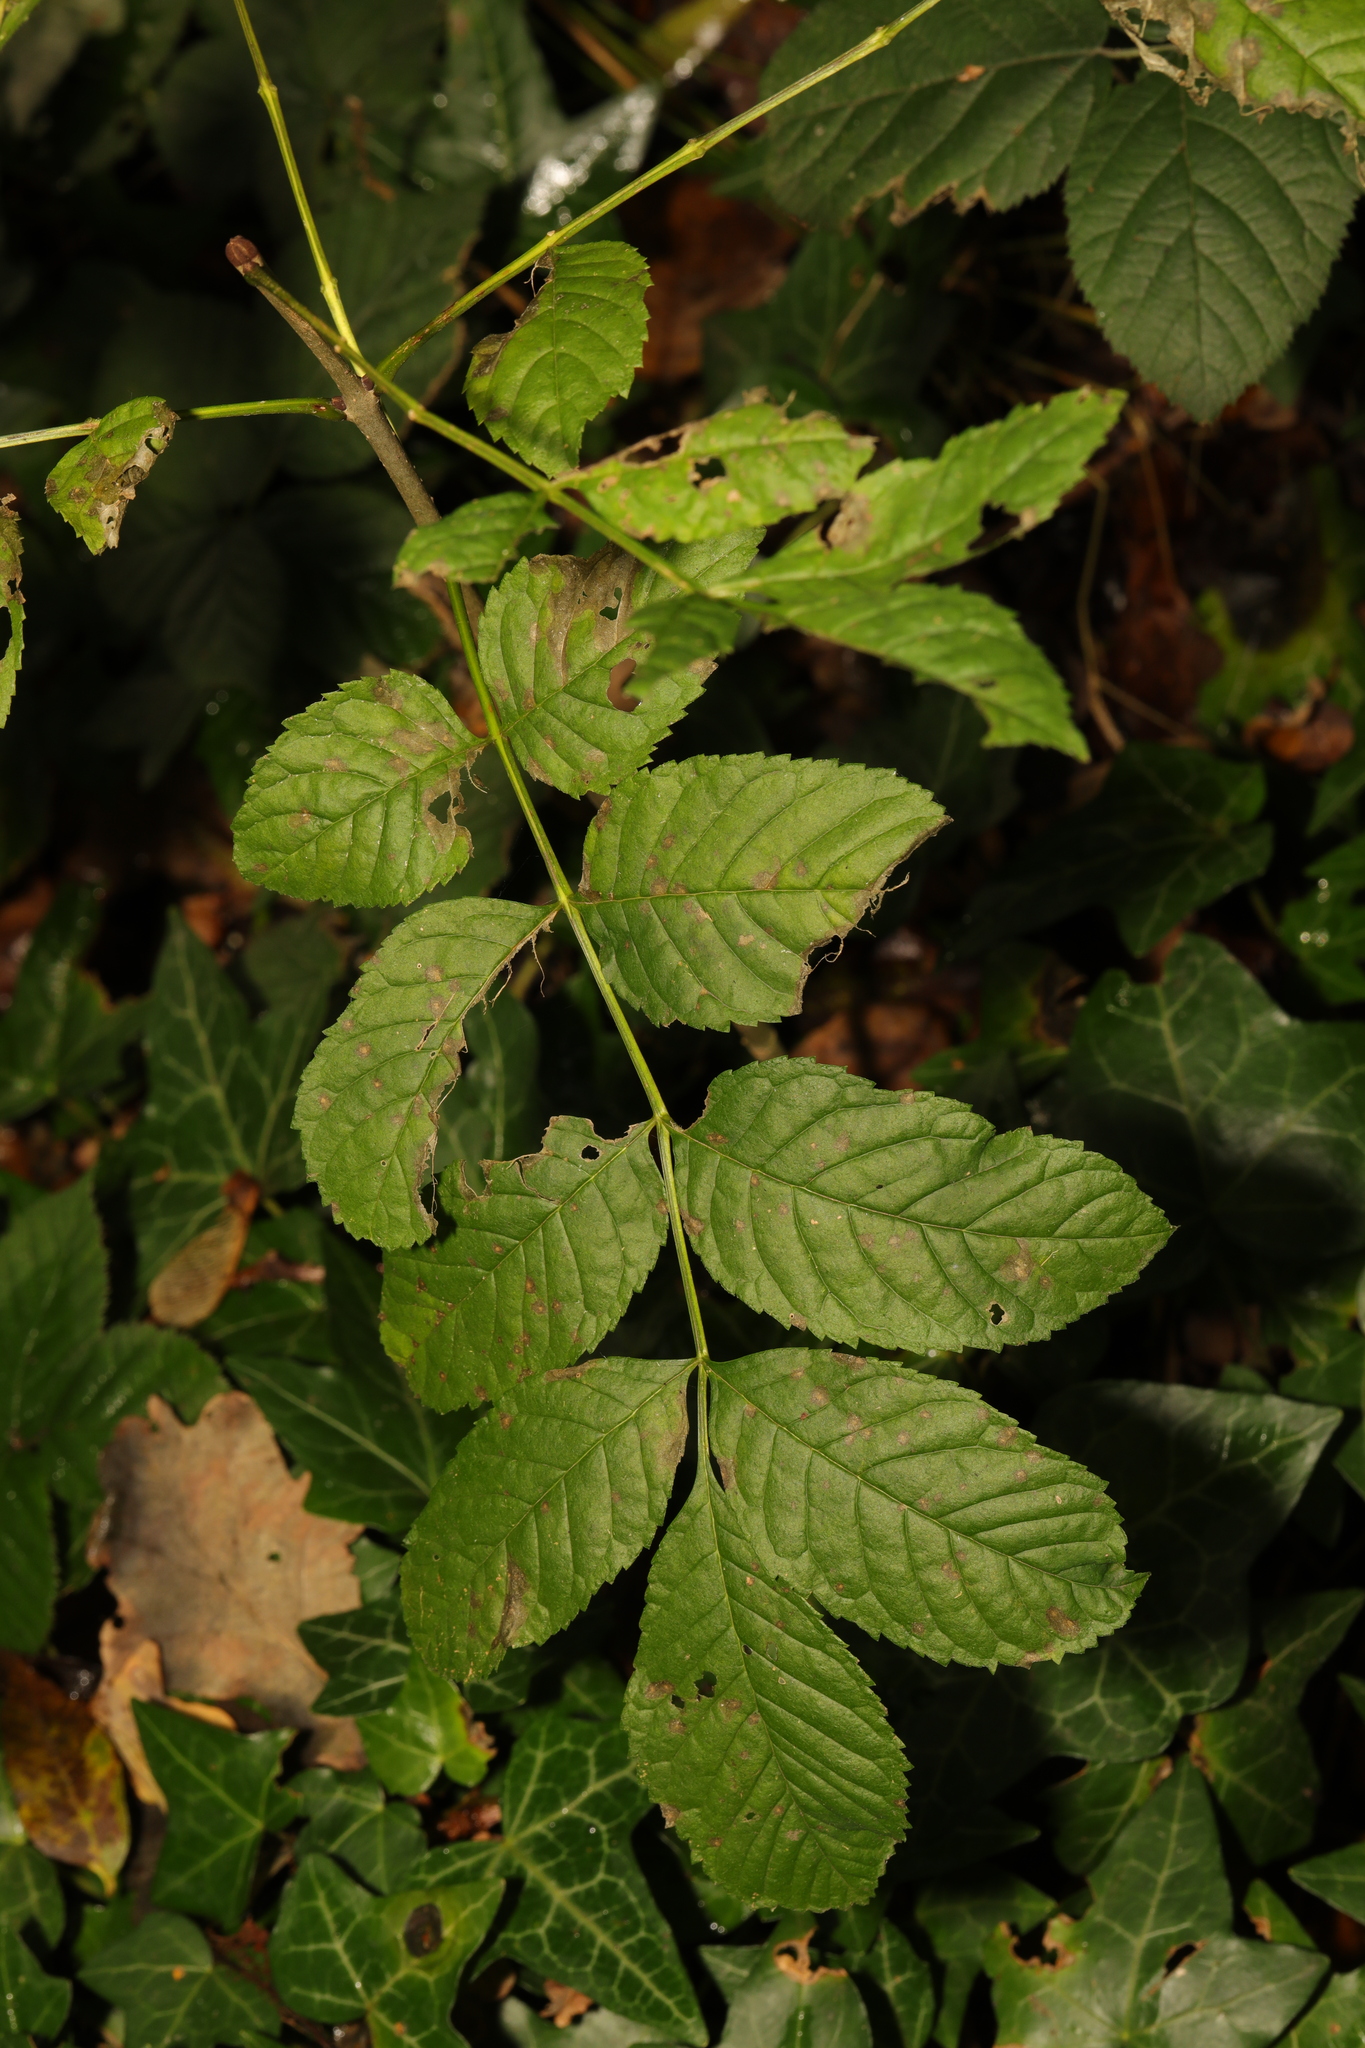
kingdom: Plantae
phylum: Tracheophyta
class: Magnoliopsida
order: Lamiales
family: Oleaceae
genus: Fraxinus
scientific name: Fraxinus excelsior
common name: European ash
